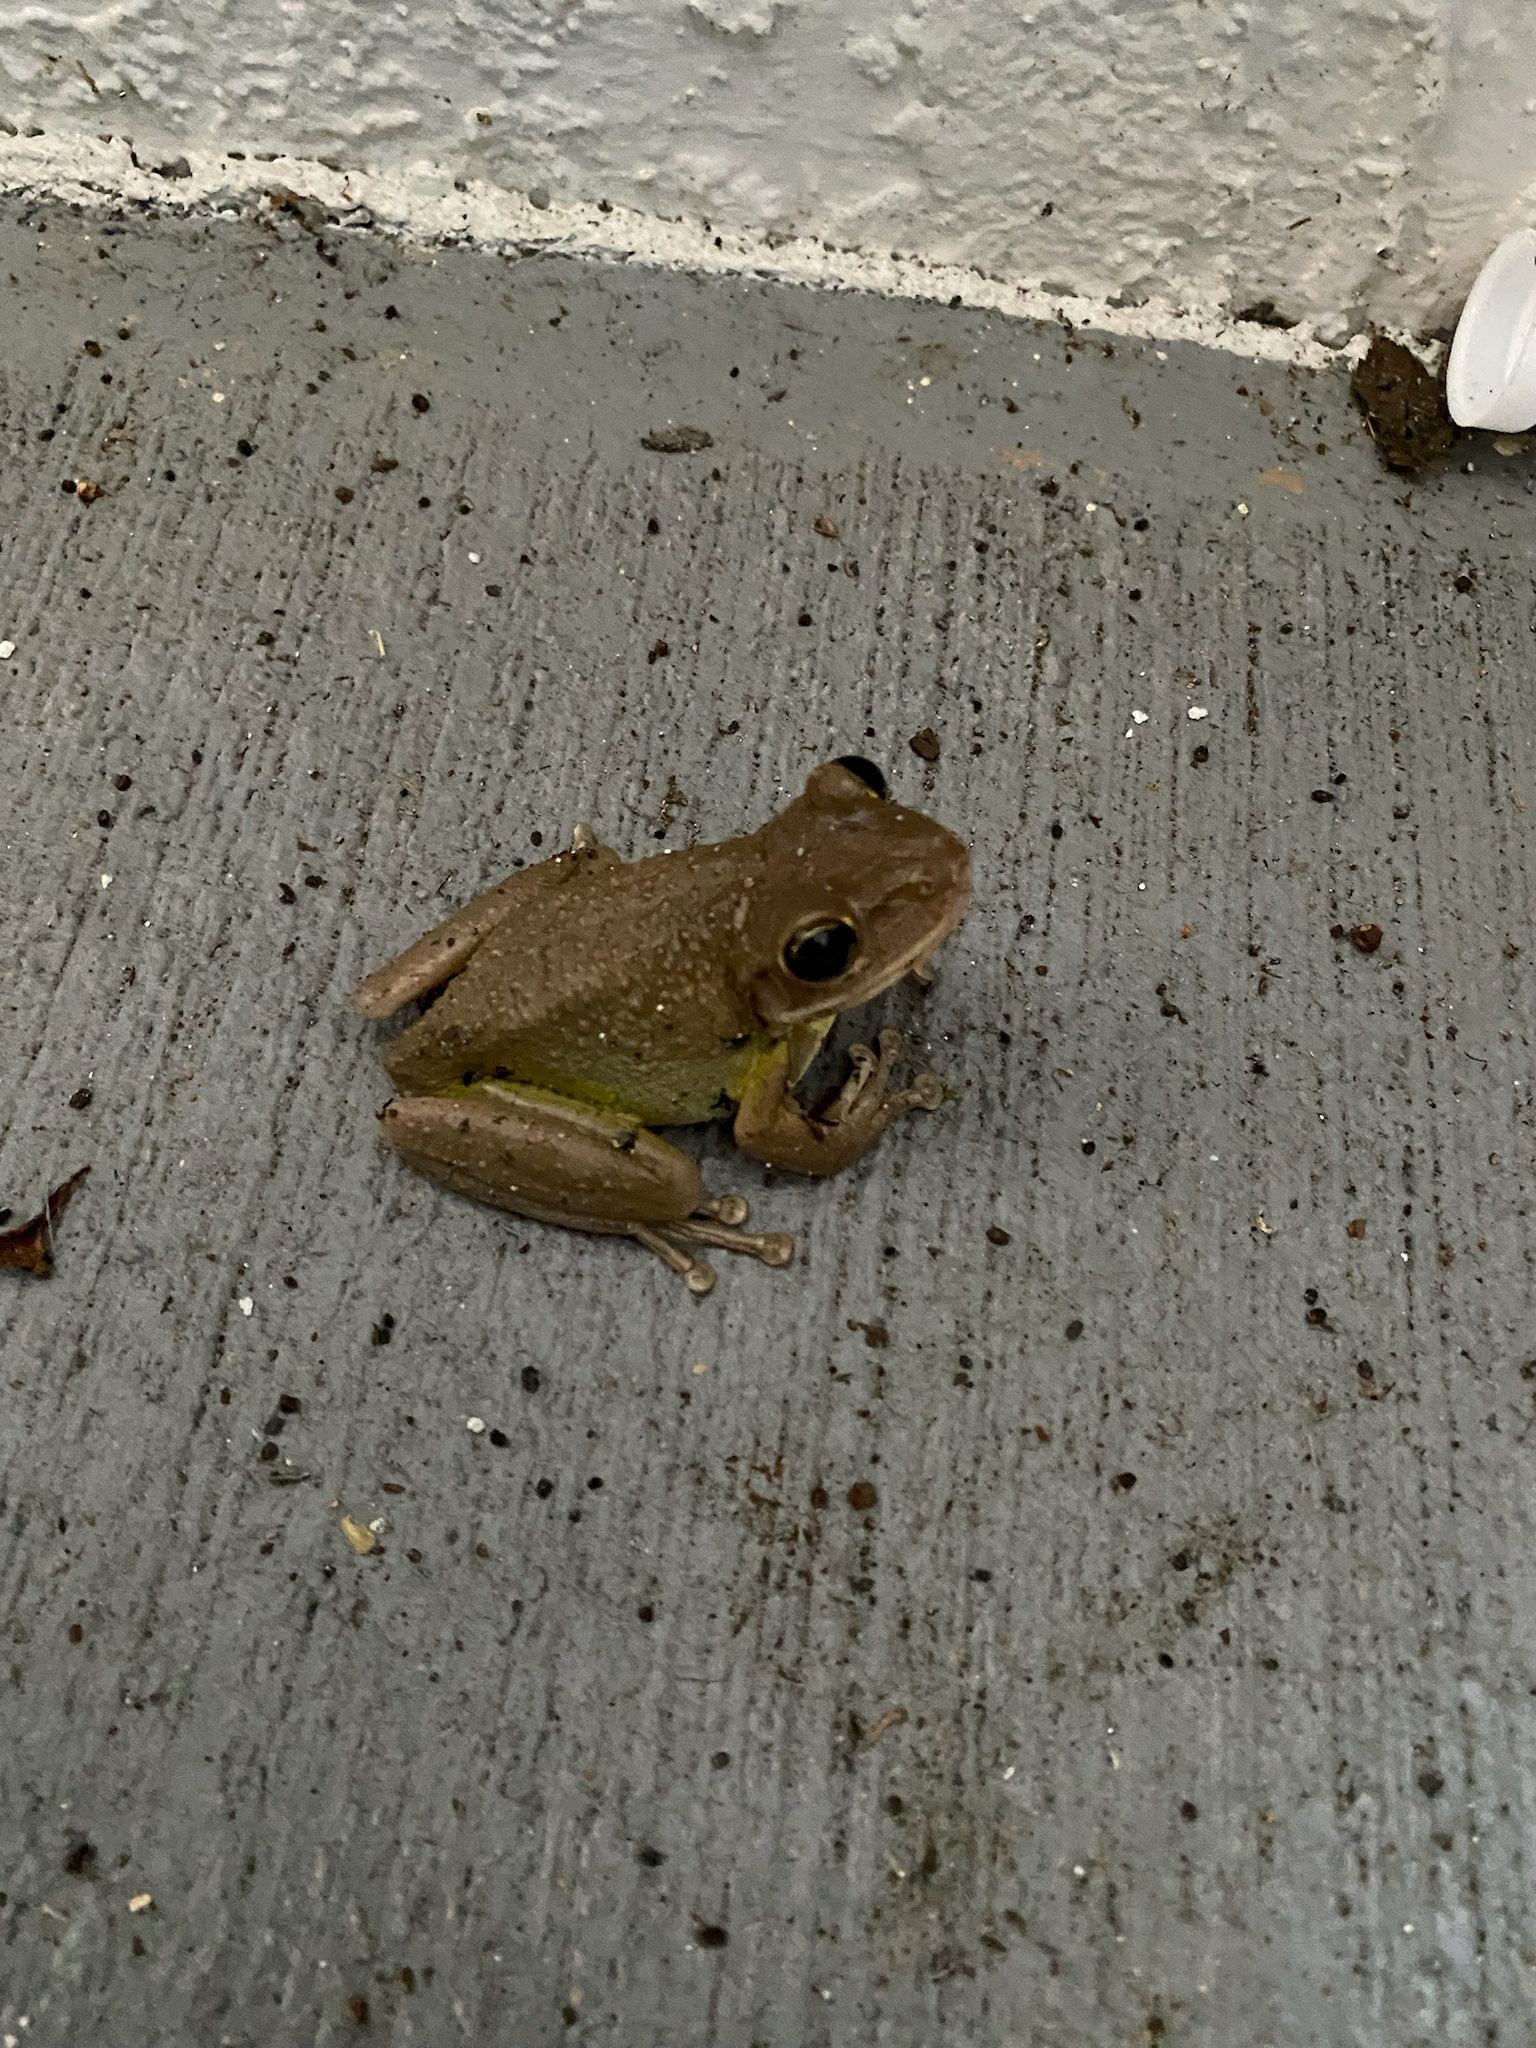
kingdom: Animalia
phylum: Chordata
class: Amphibia
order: Anura
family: Hylidae
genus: Osteopilus
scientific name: Osteopilus septentrionalis
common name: Cuban treefrog
